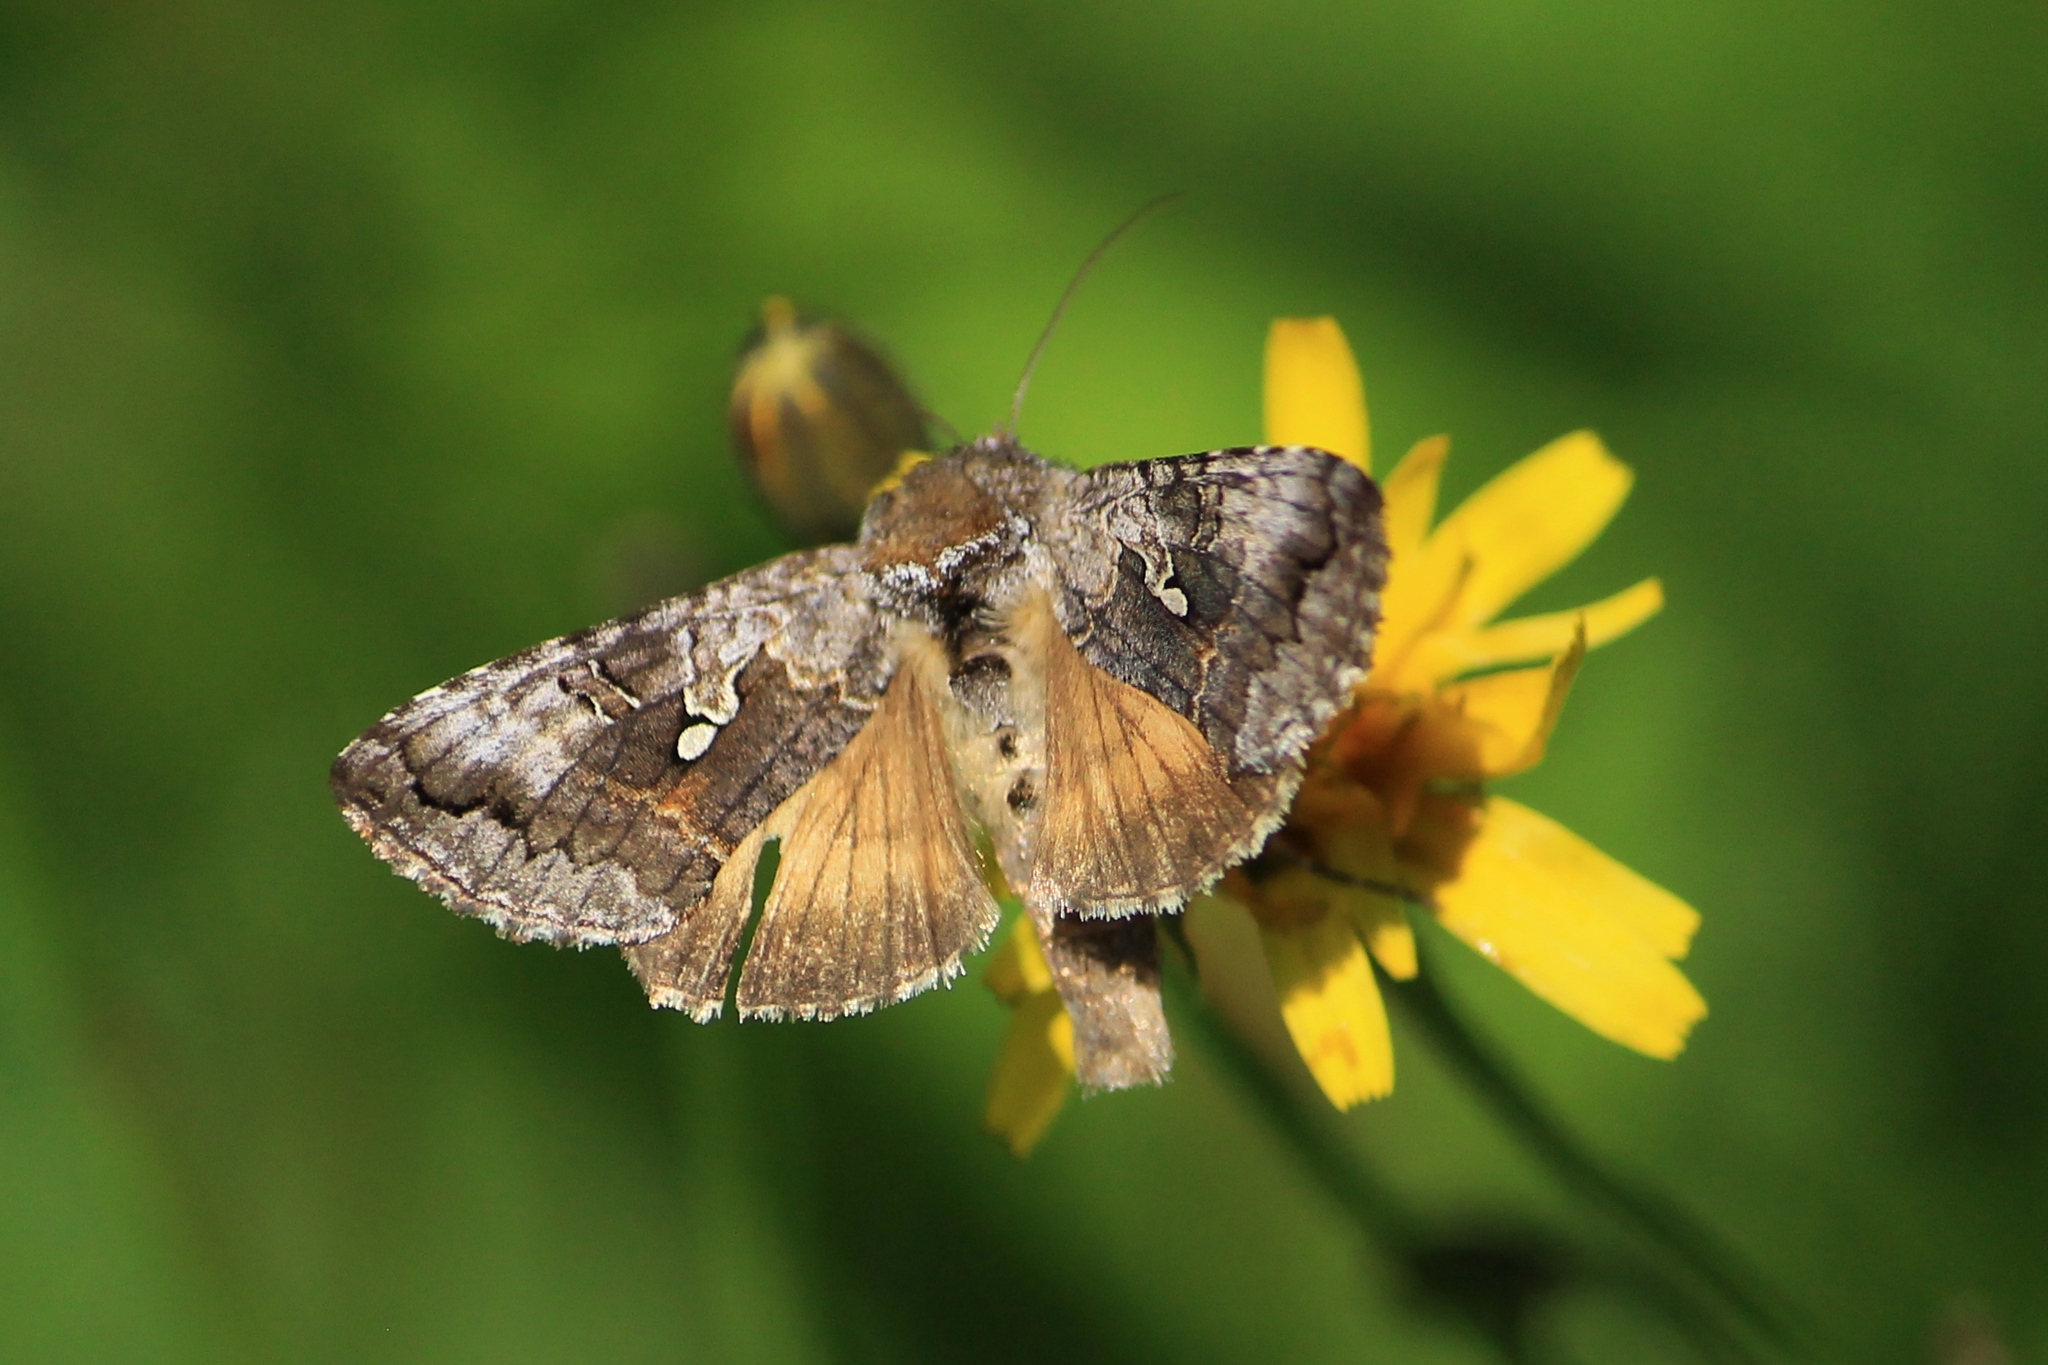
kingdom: Animalia
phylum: Arthropoda
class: Insecta
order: Lepidoptera
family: Noctuidae
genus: Syngrapha
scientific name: Syngrapha interrogationis
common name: Scarce silver y
